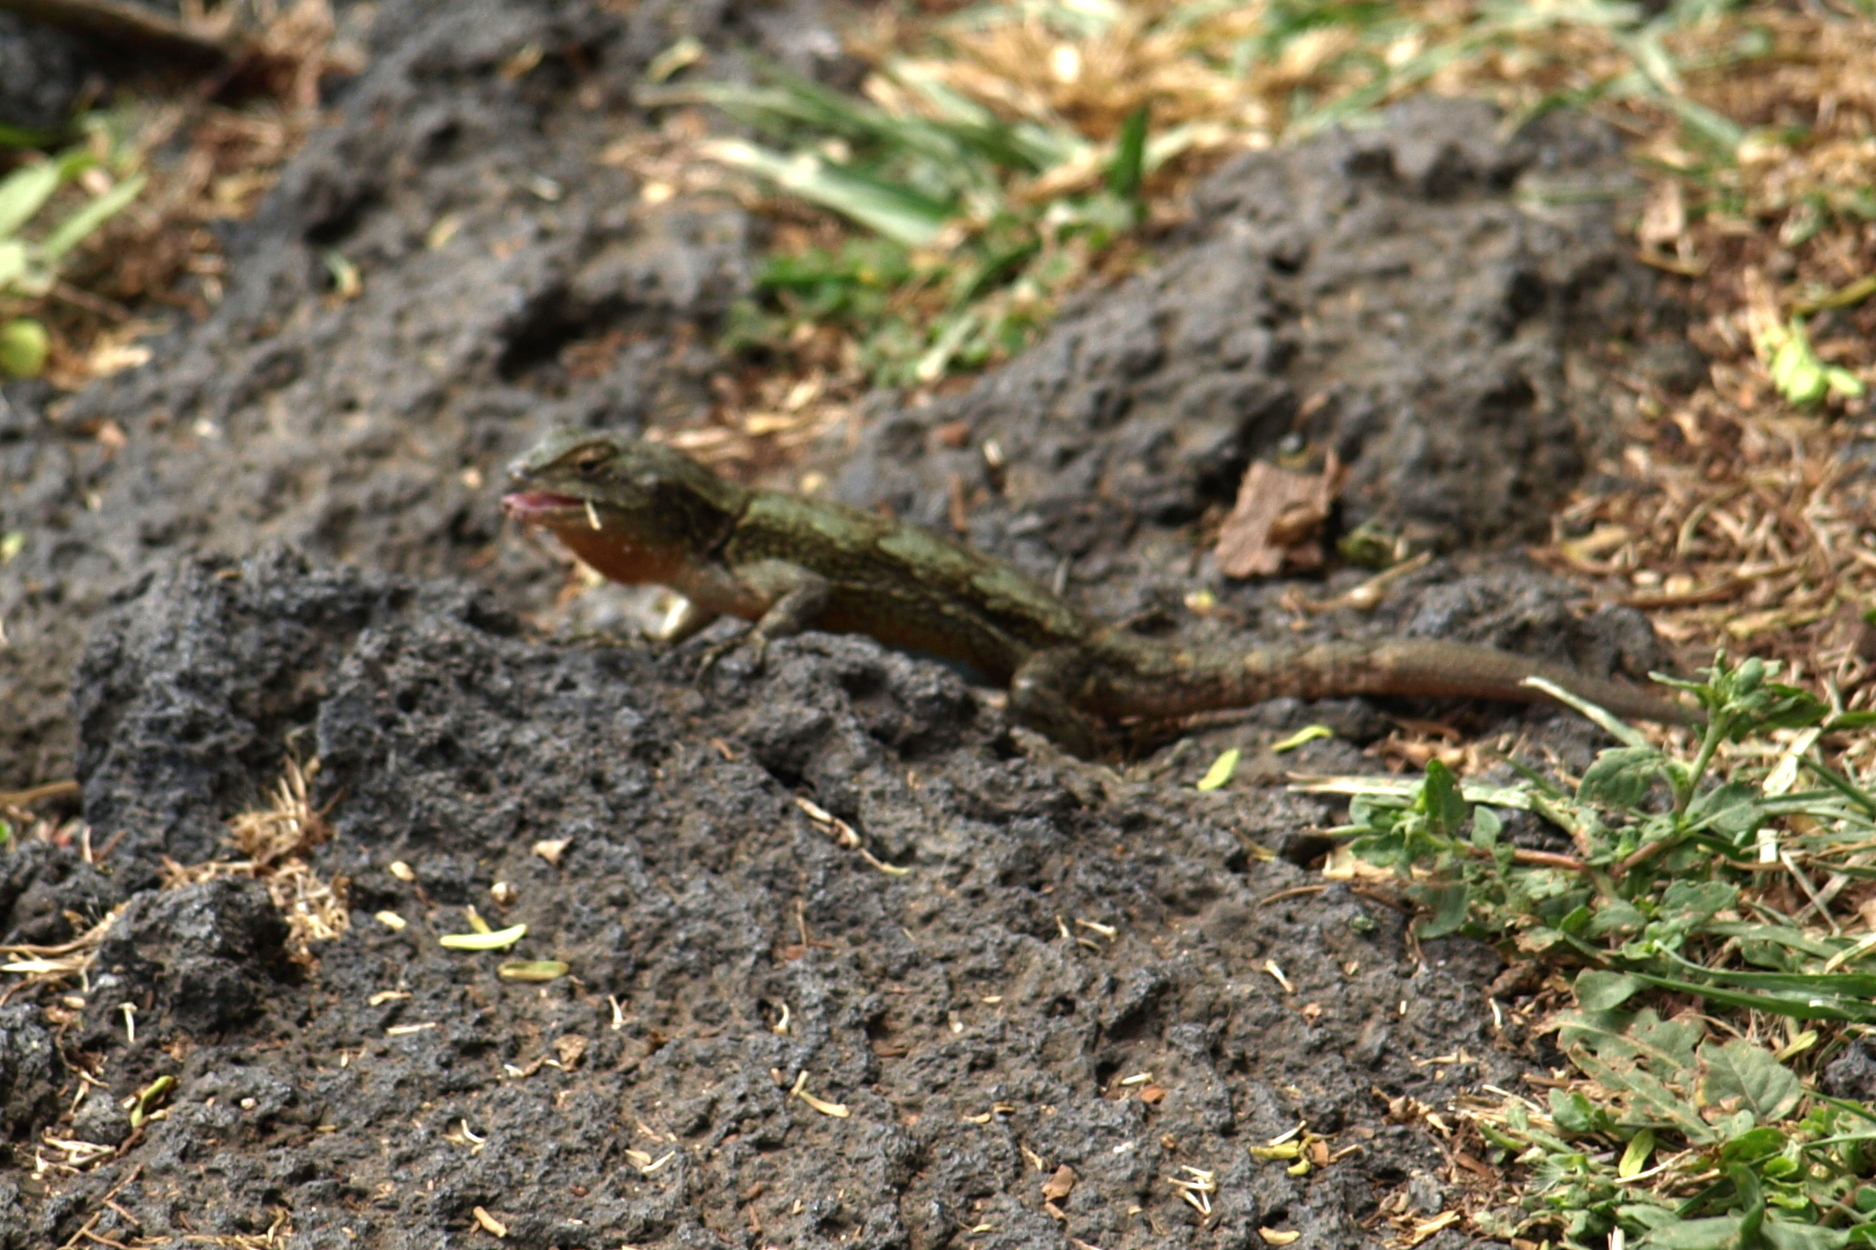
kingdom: Animalia
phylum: Chordata
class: Squamata
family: Phrynosomatidae
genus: Sceloporus
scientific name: Sceloporus grammicus
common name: Mesquite lizard
